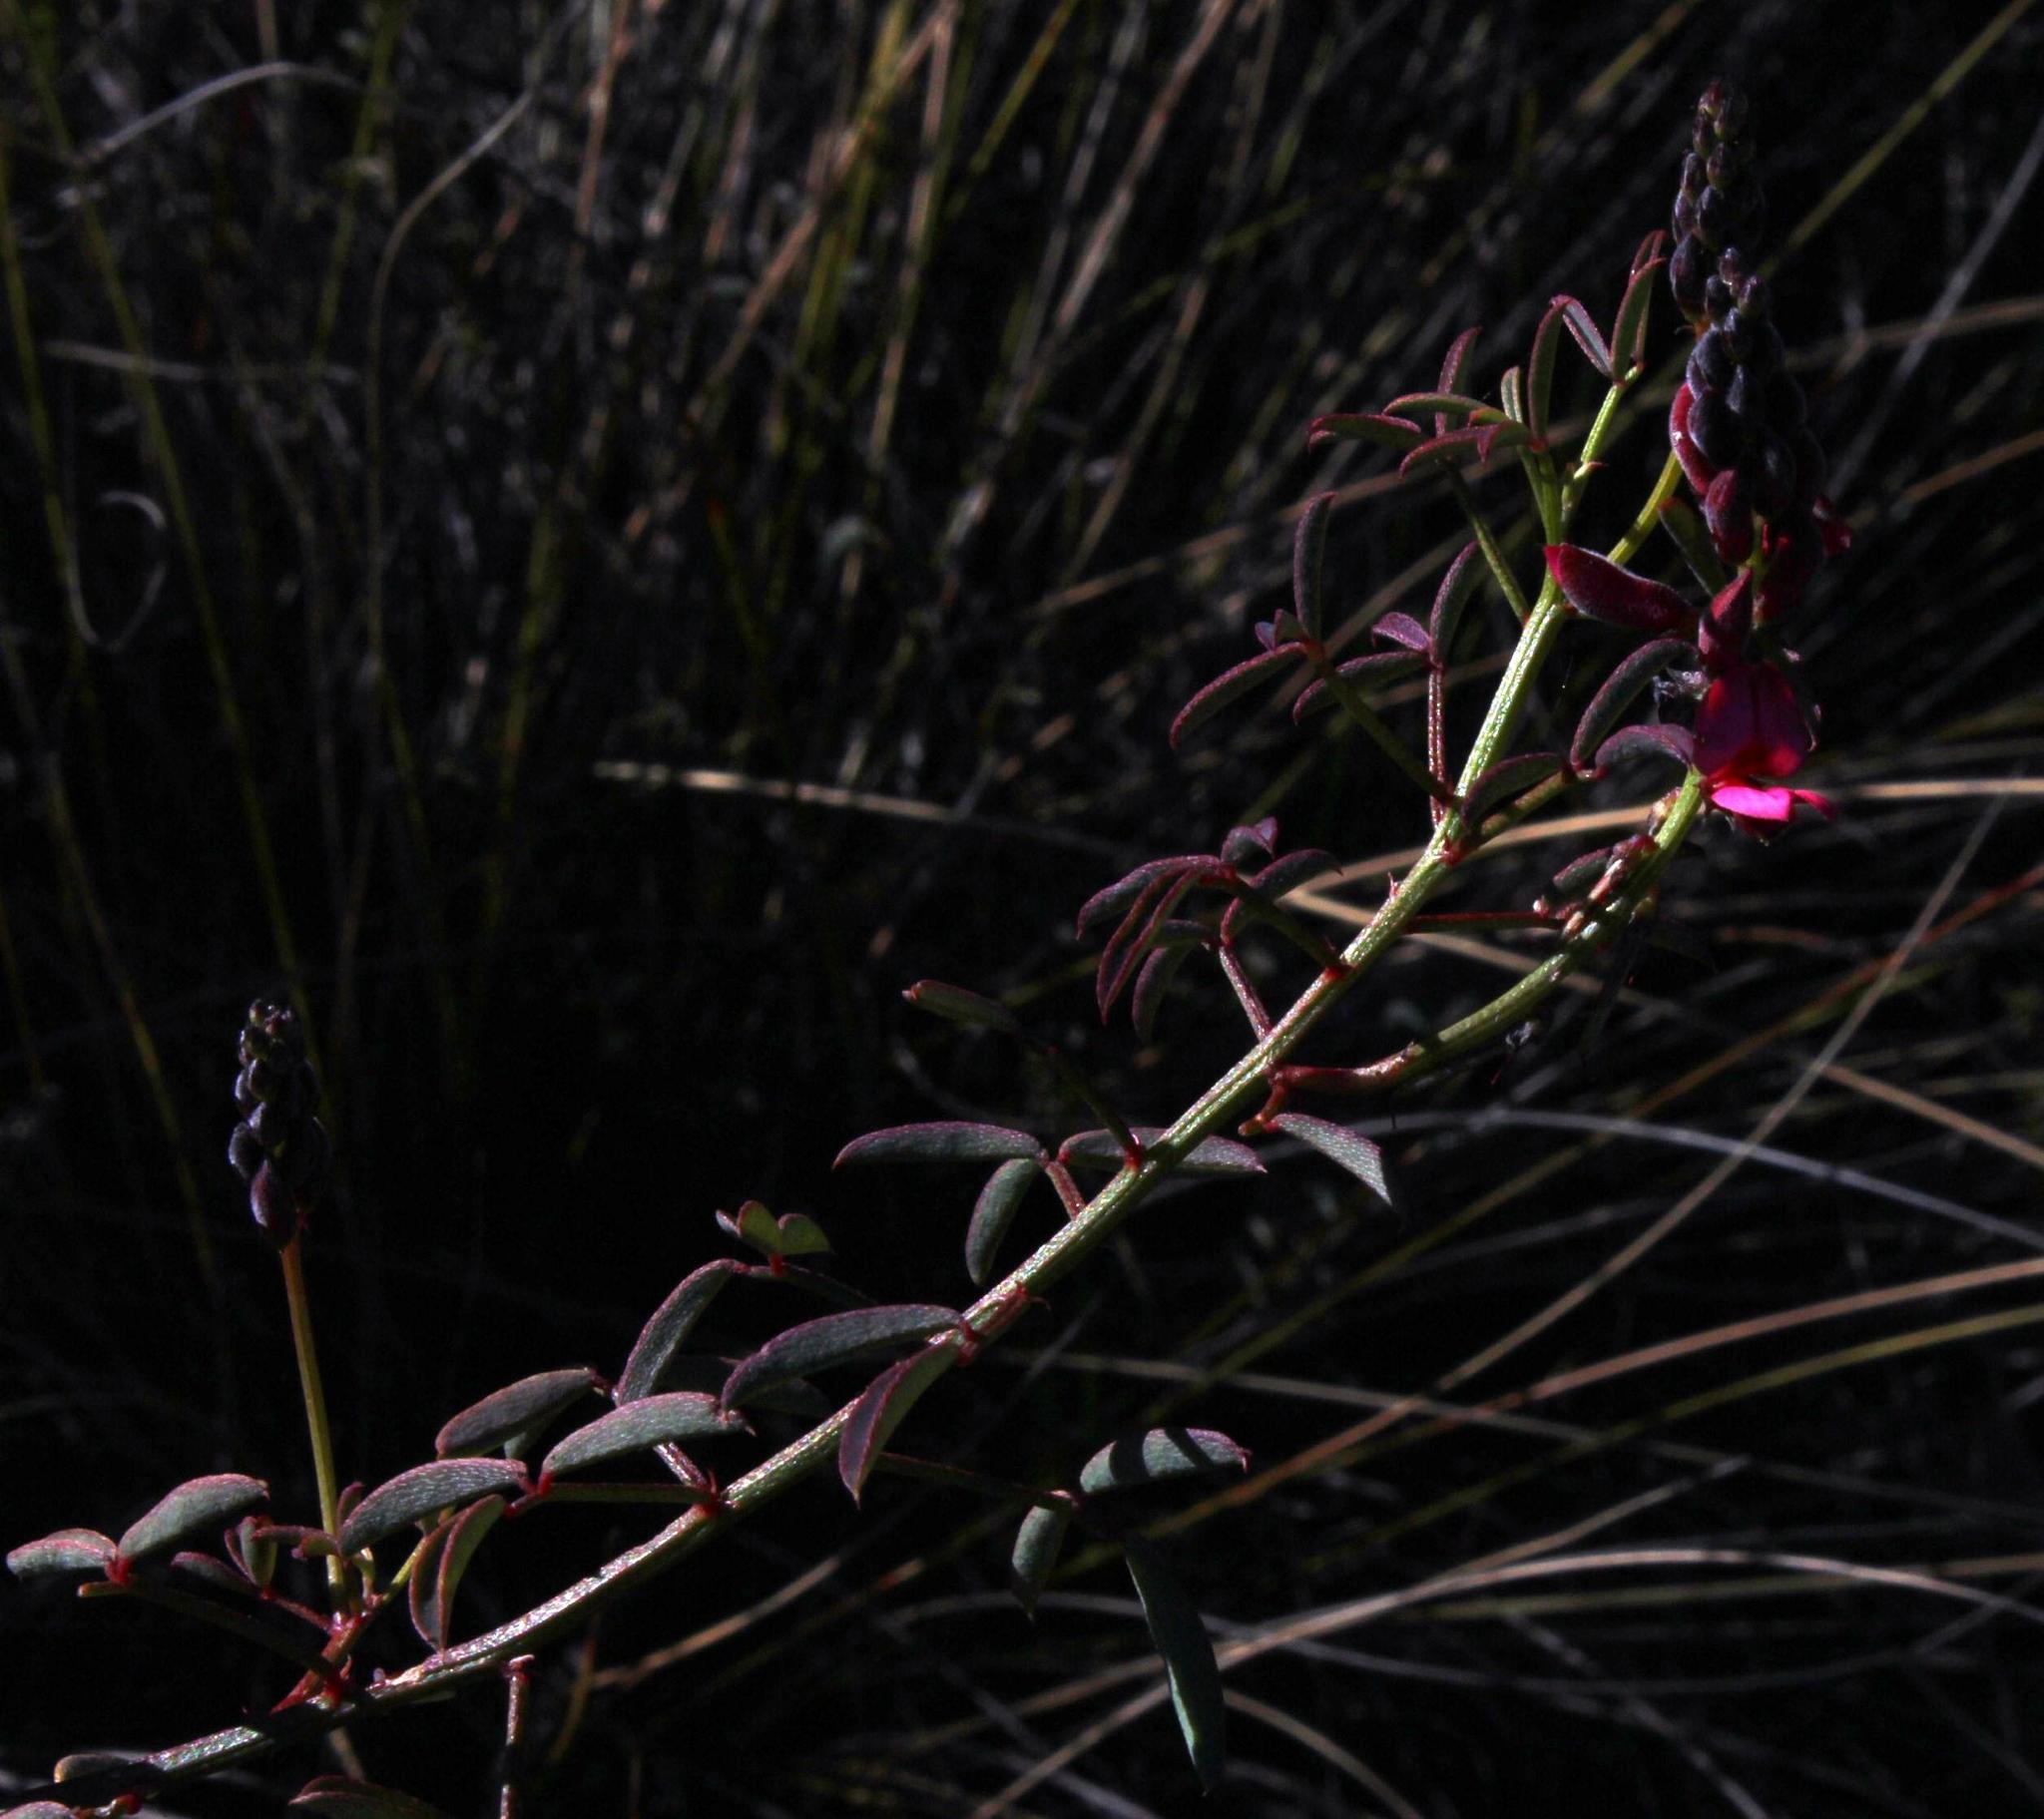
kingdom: Plantae
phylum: Tracheophyta
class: Magnoliopsida
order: Fabales
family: Fabaceae
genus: Indigofera
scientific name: Indigofera heterophylla
